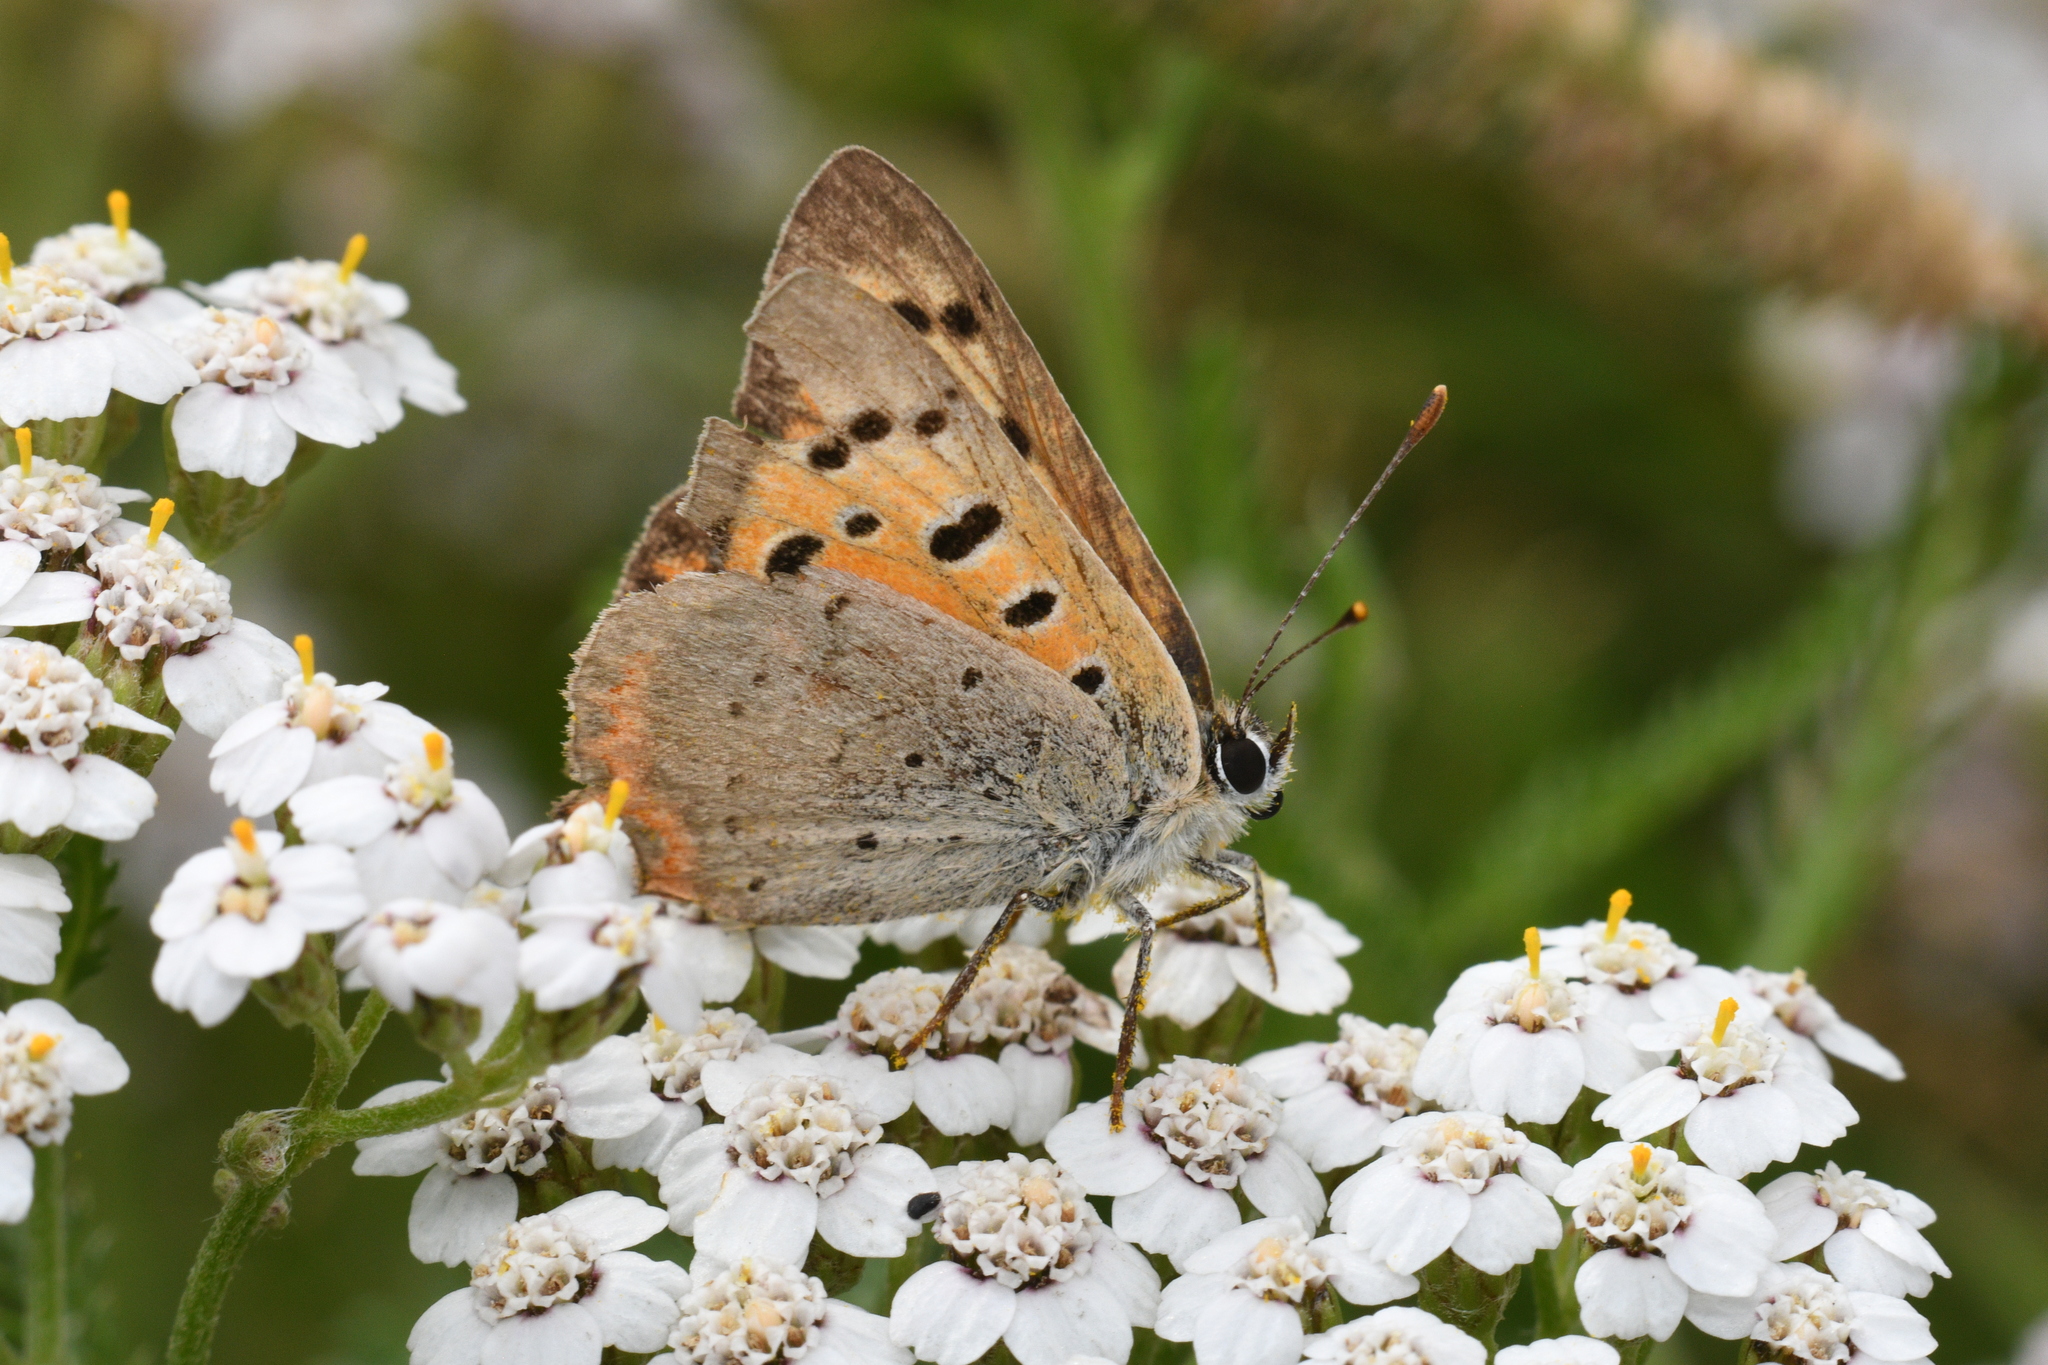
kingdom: Animalia
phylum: Arthropoda
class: Insecta
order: Lepidoptera
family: Lycaenidae
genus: Lycaena
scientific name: Lycaena phlaeas
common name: Small copper
